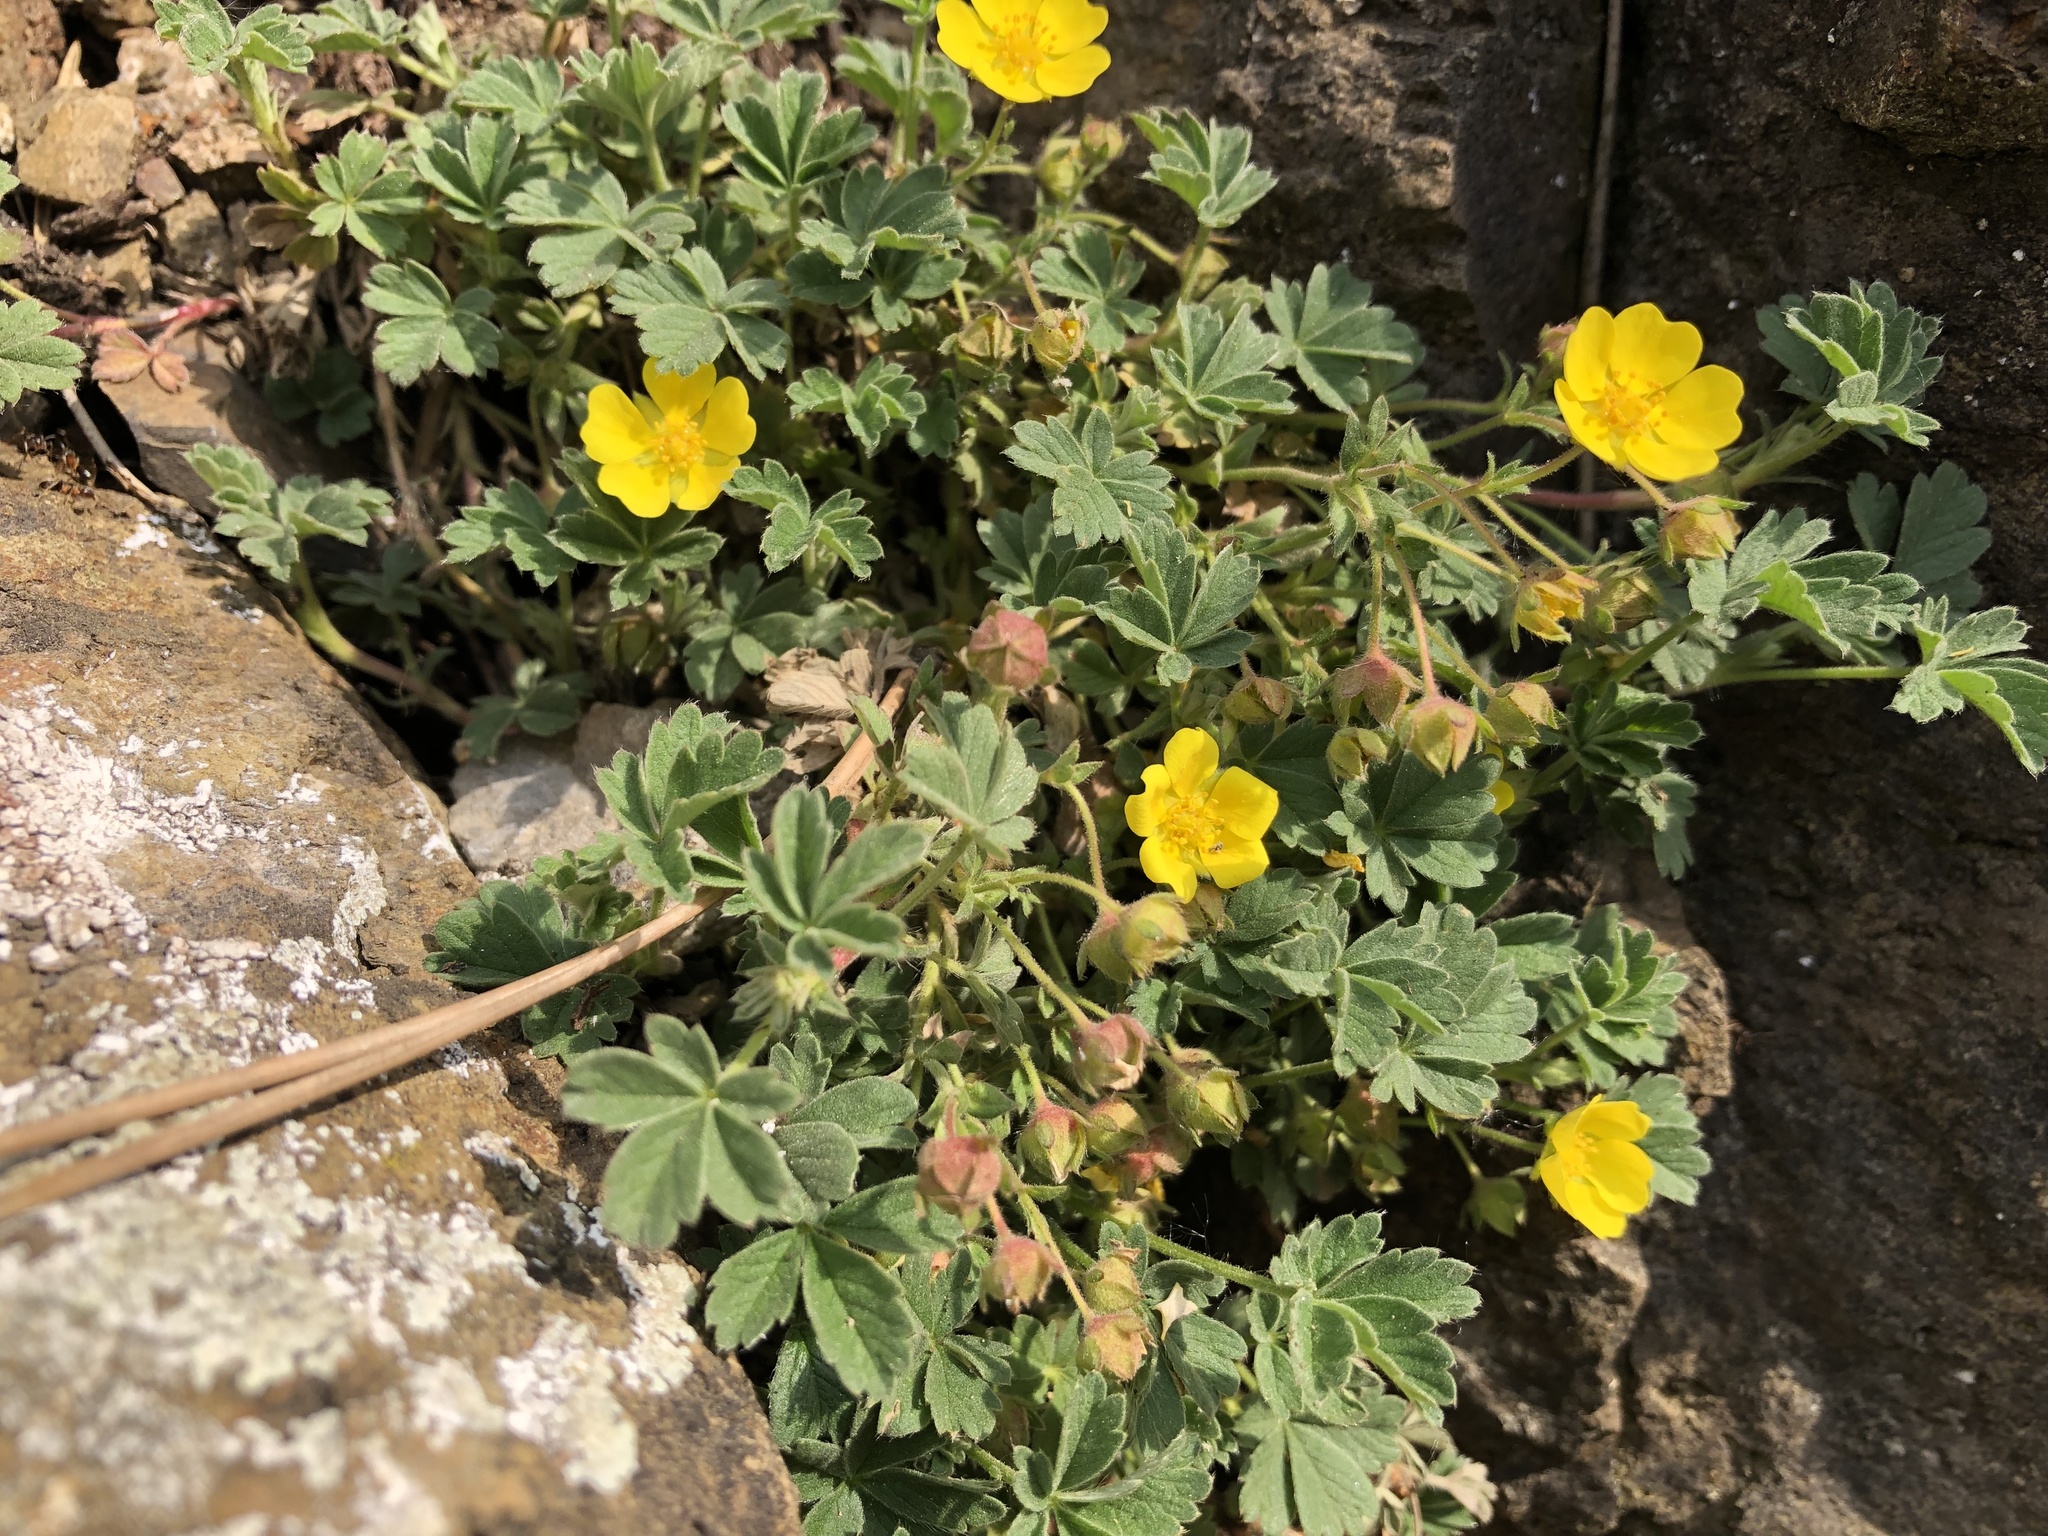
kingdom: Plantae
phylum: Tracheophyta
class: Magnoliopsida
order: Rosales
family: Rosaceae
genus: Potentilla
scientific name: Potentilla incana
